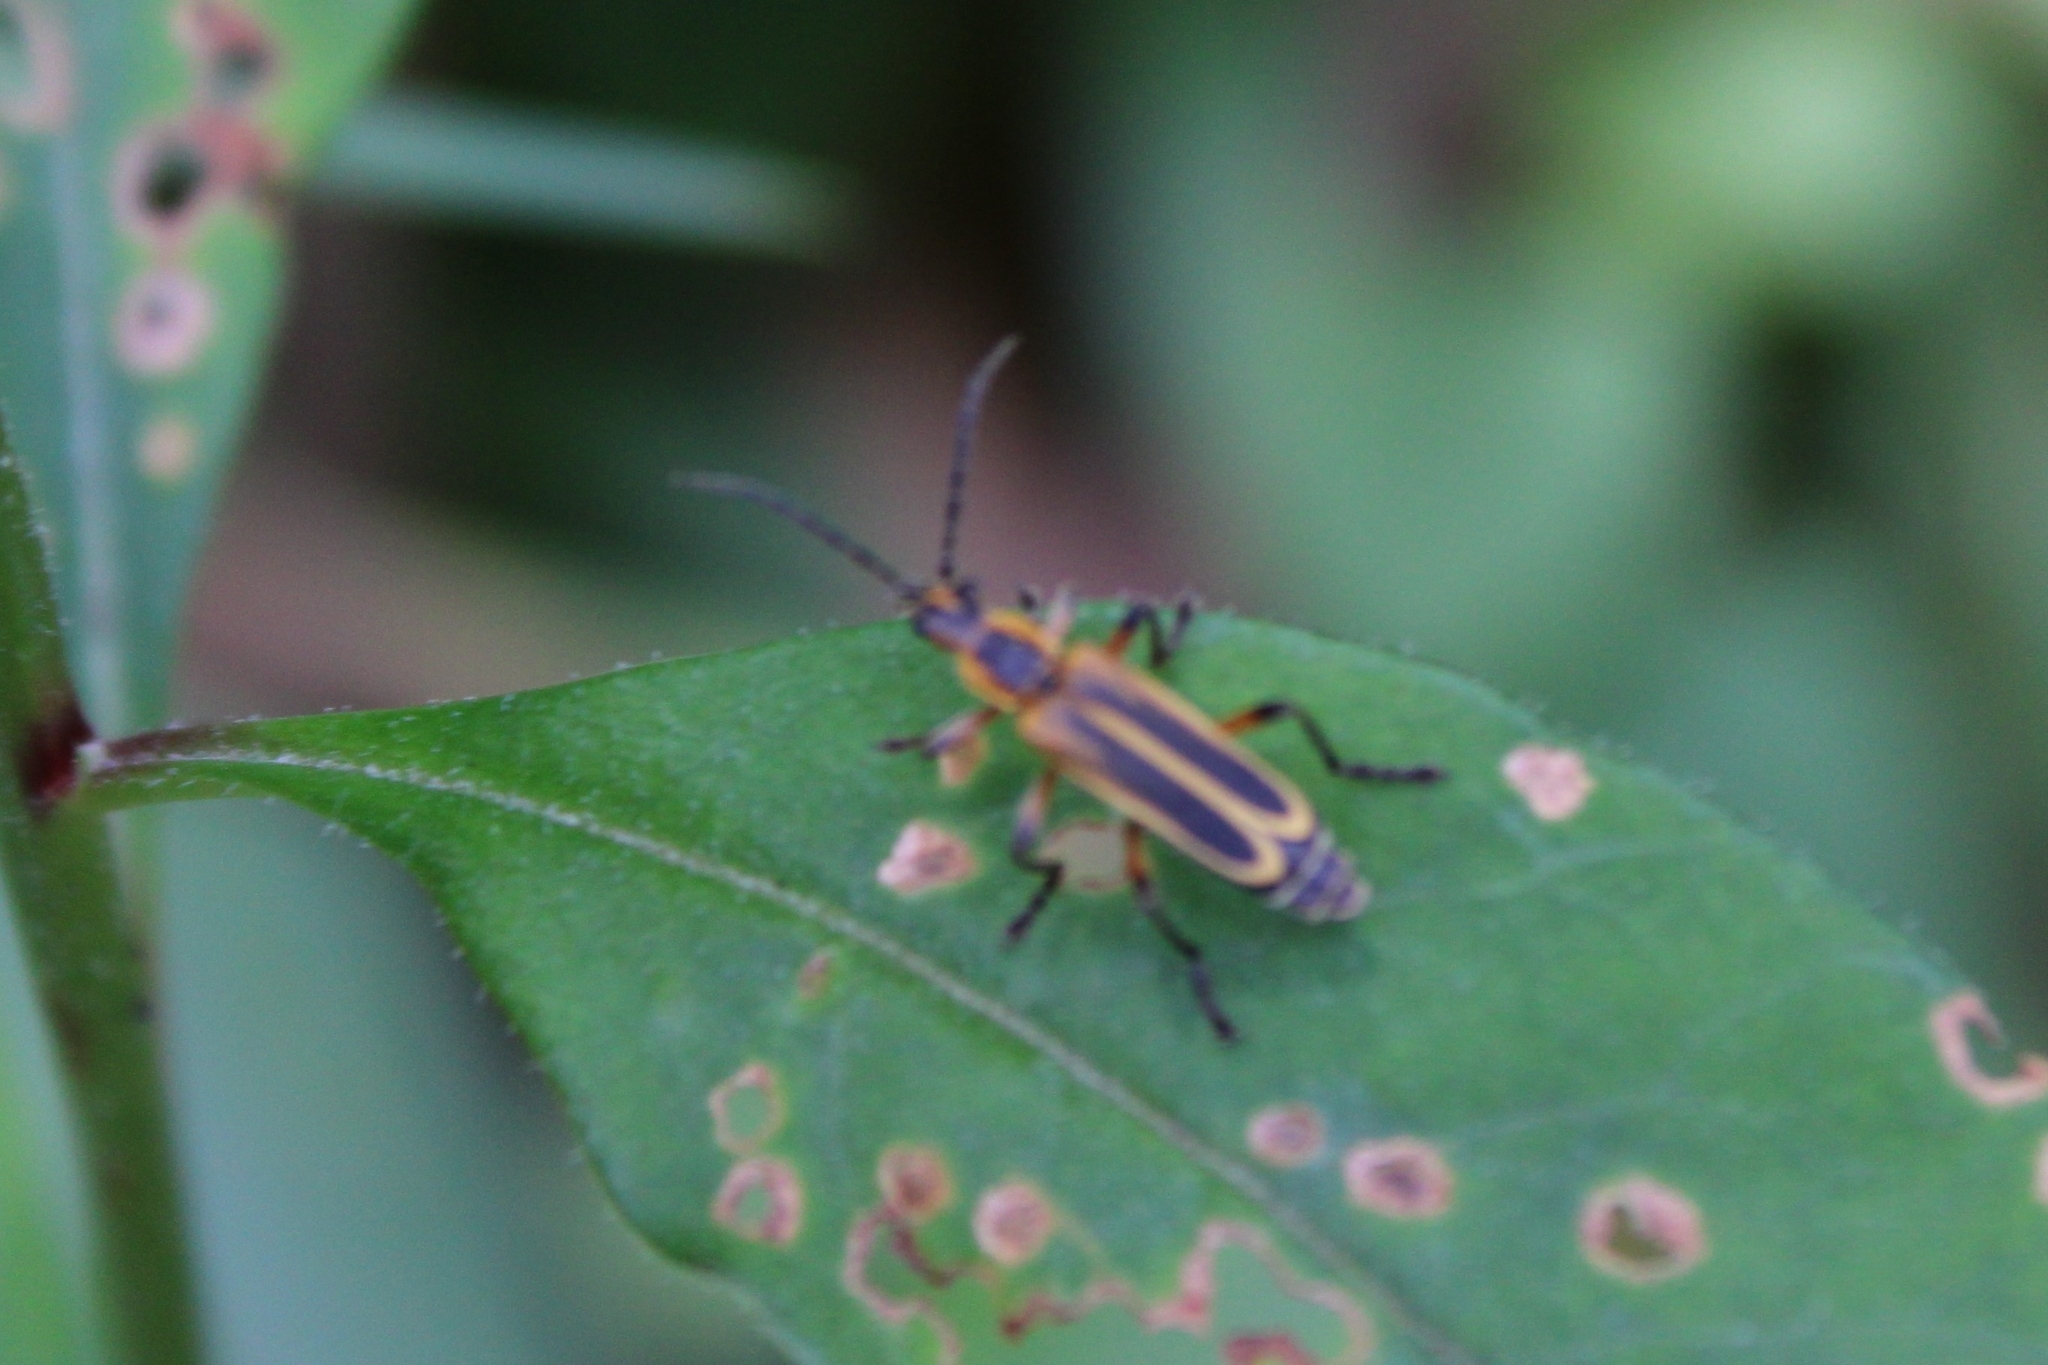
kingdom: Animalia
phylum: Arthropoda
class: Insecta
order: Coleoptera
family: Cantharidae
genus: Chauliognathus
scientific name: Chauliognathus marginatus
